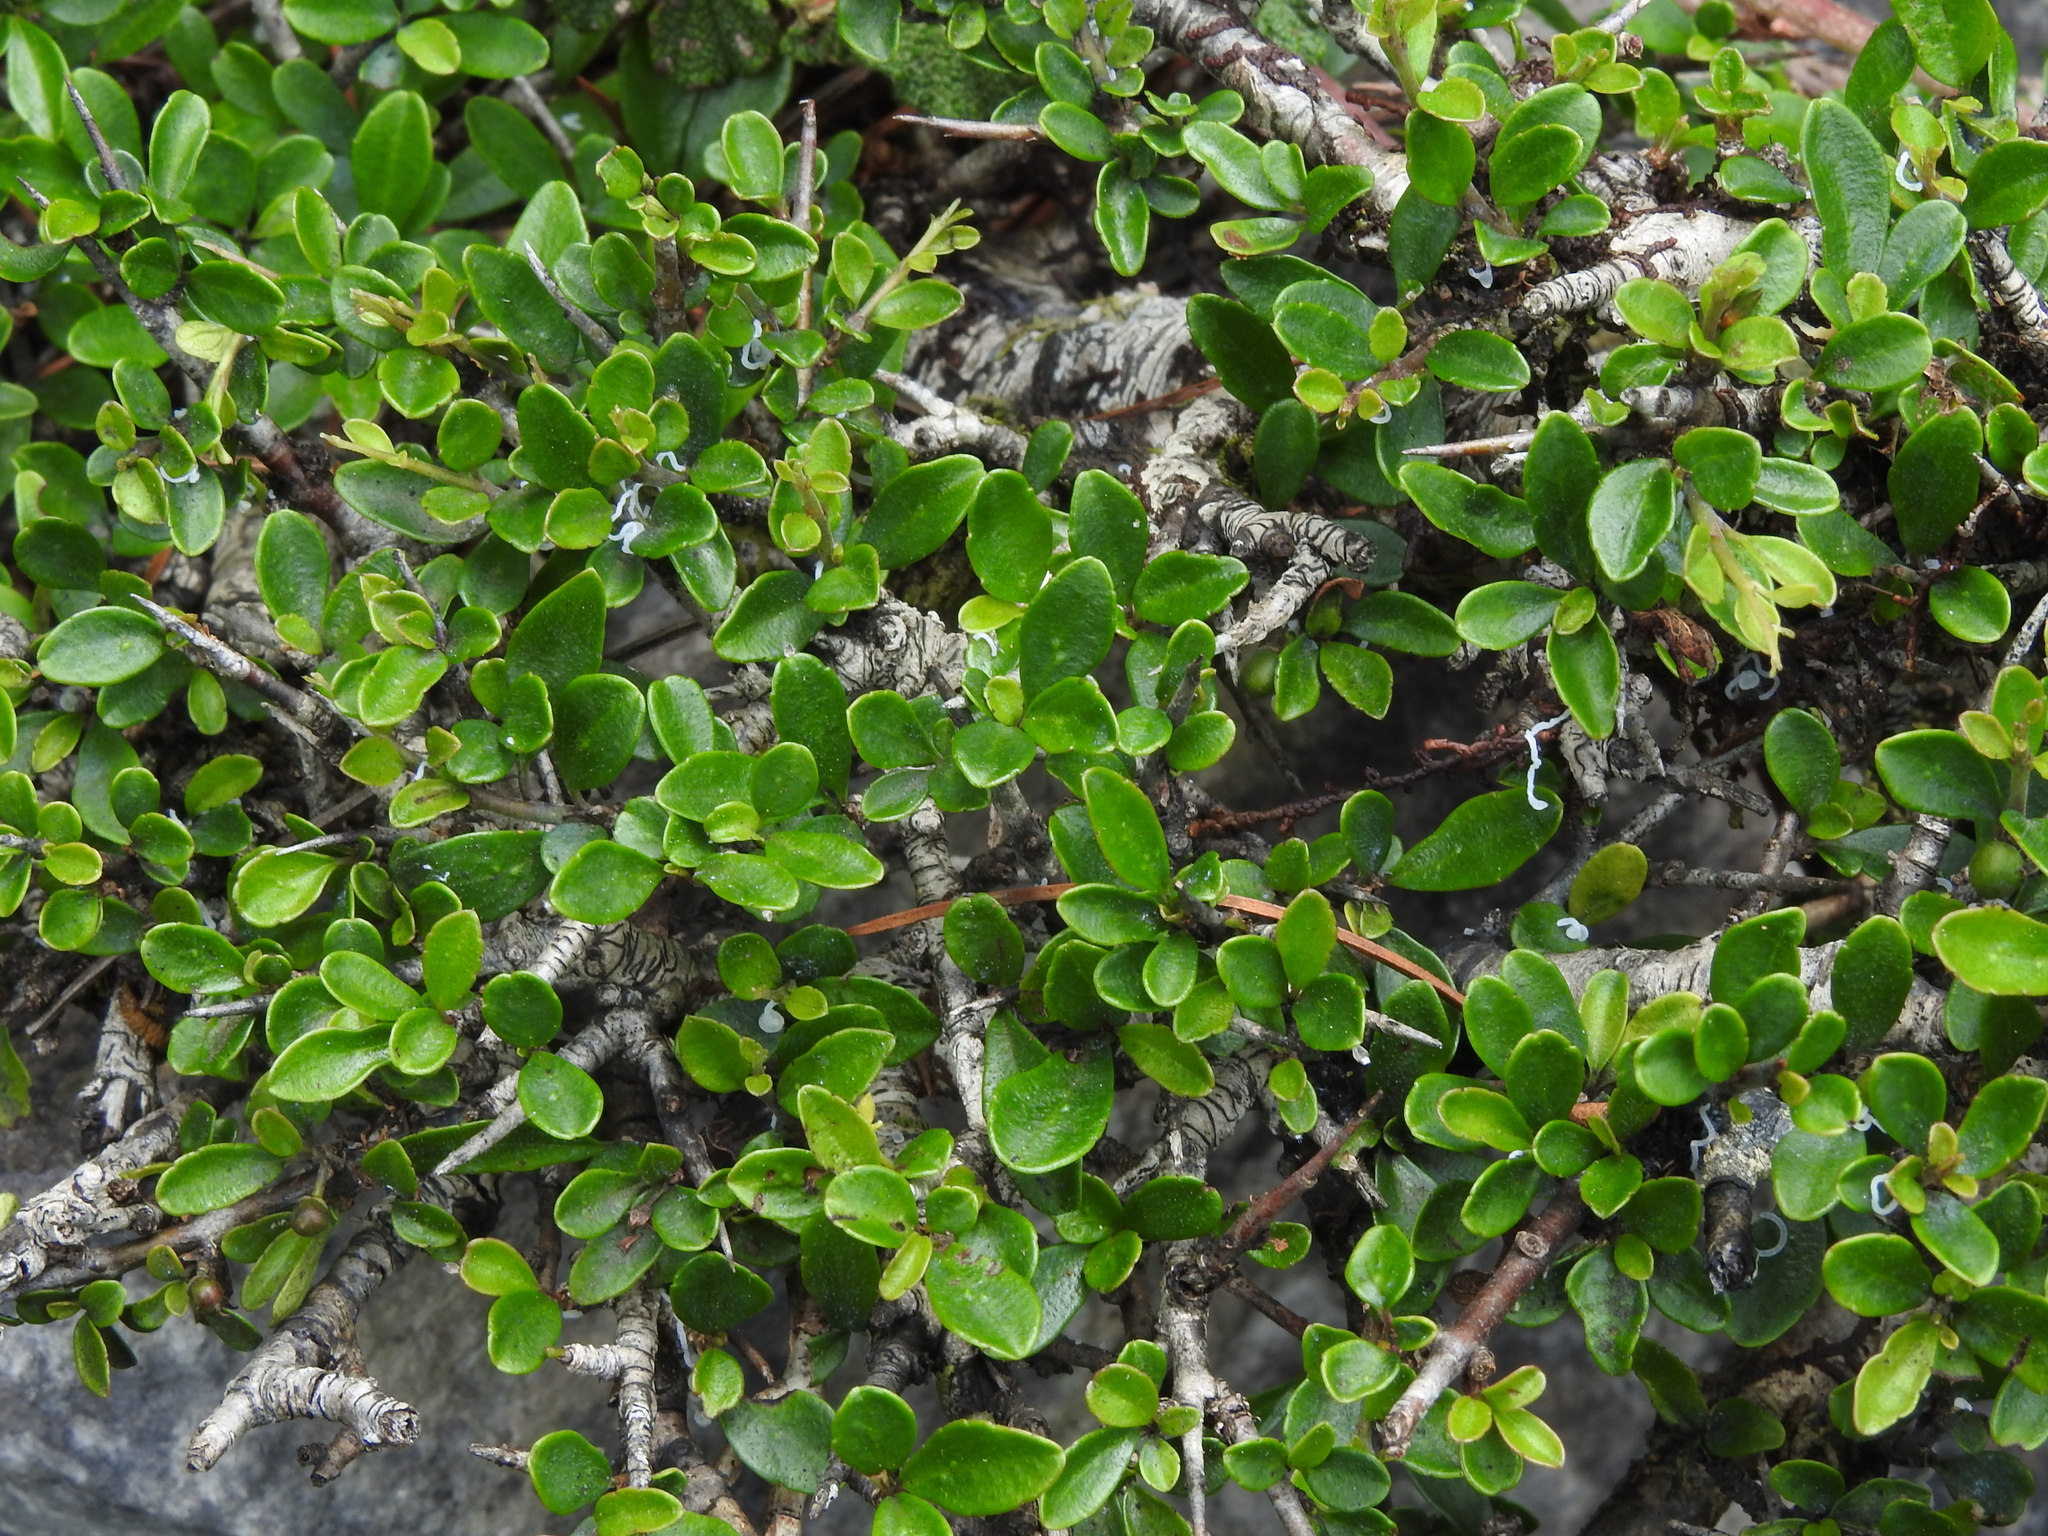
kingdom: Plantae
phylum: Tracheophyta
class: Magnoliopsida
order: Rosales
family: Rhamnaceae
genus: Rhamnus
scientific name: Rhamnus kanagusukii
